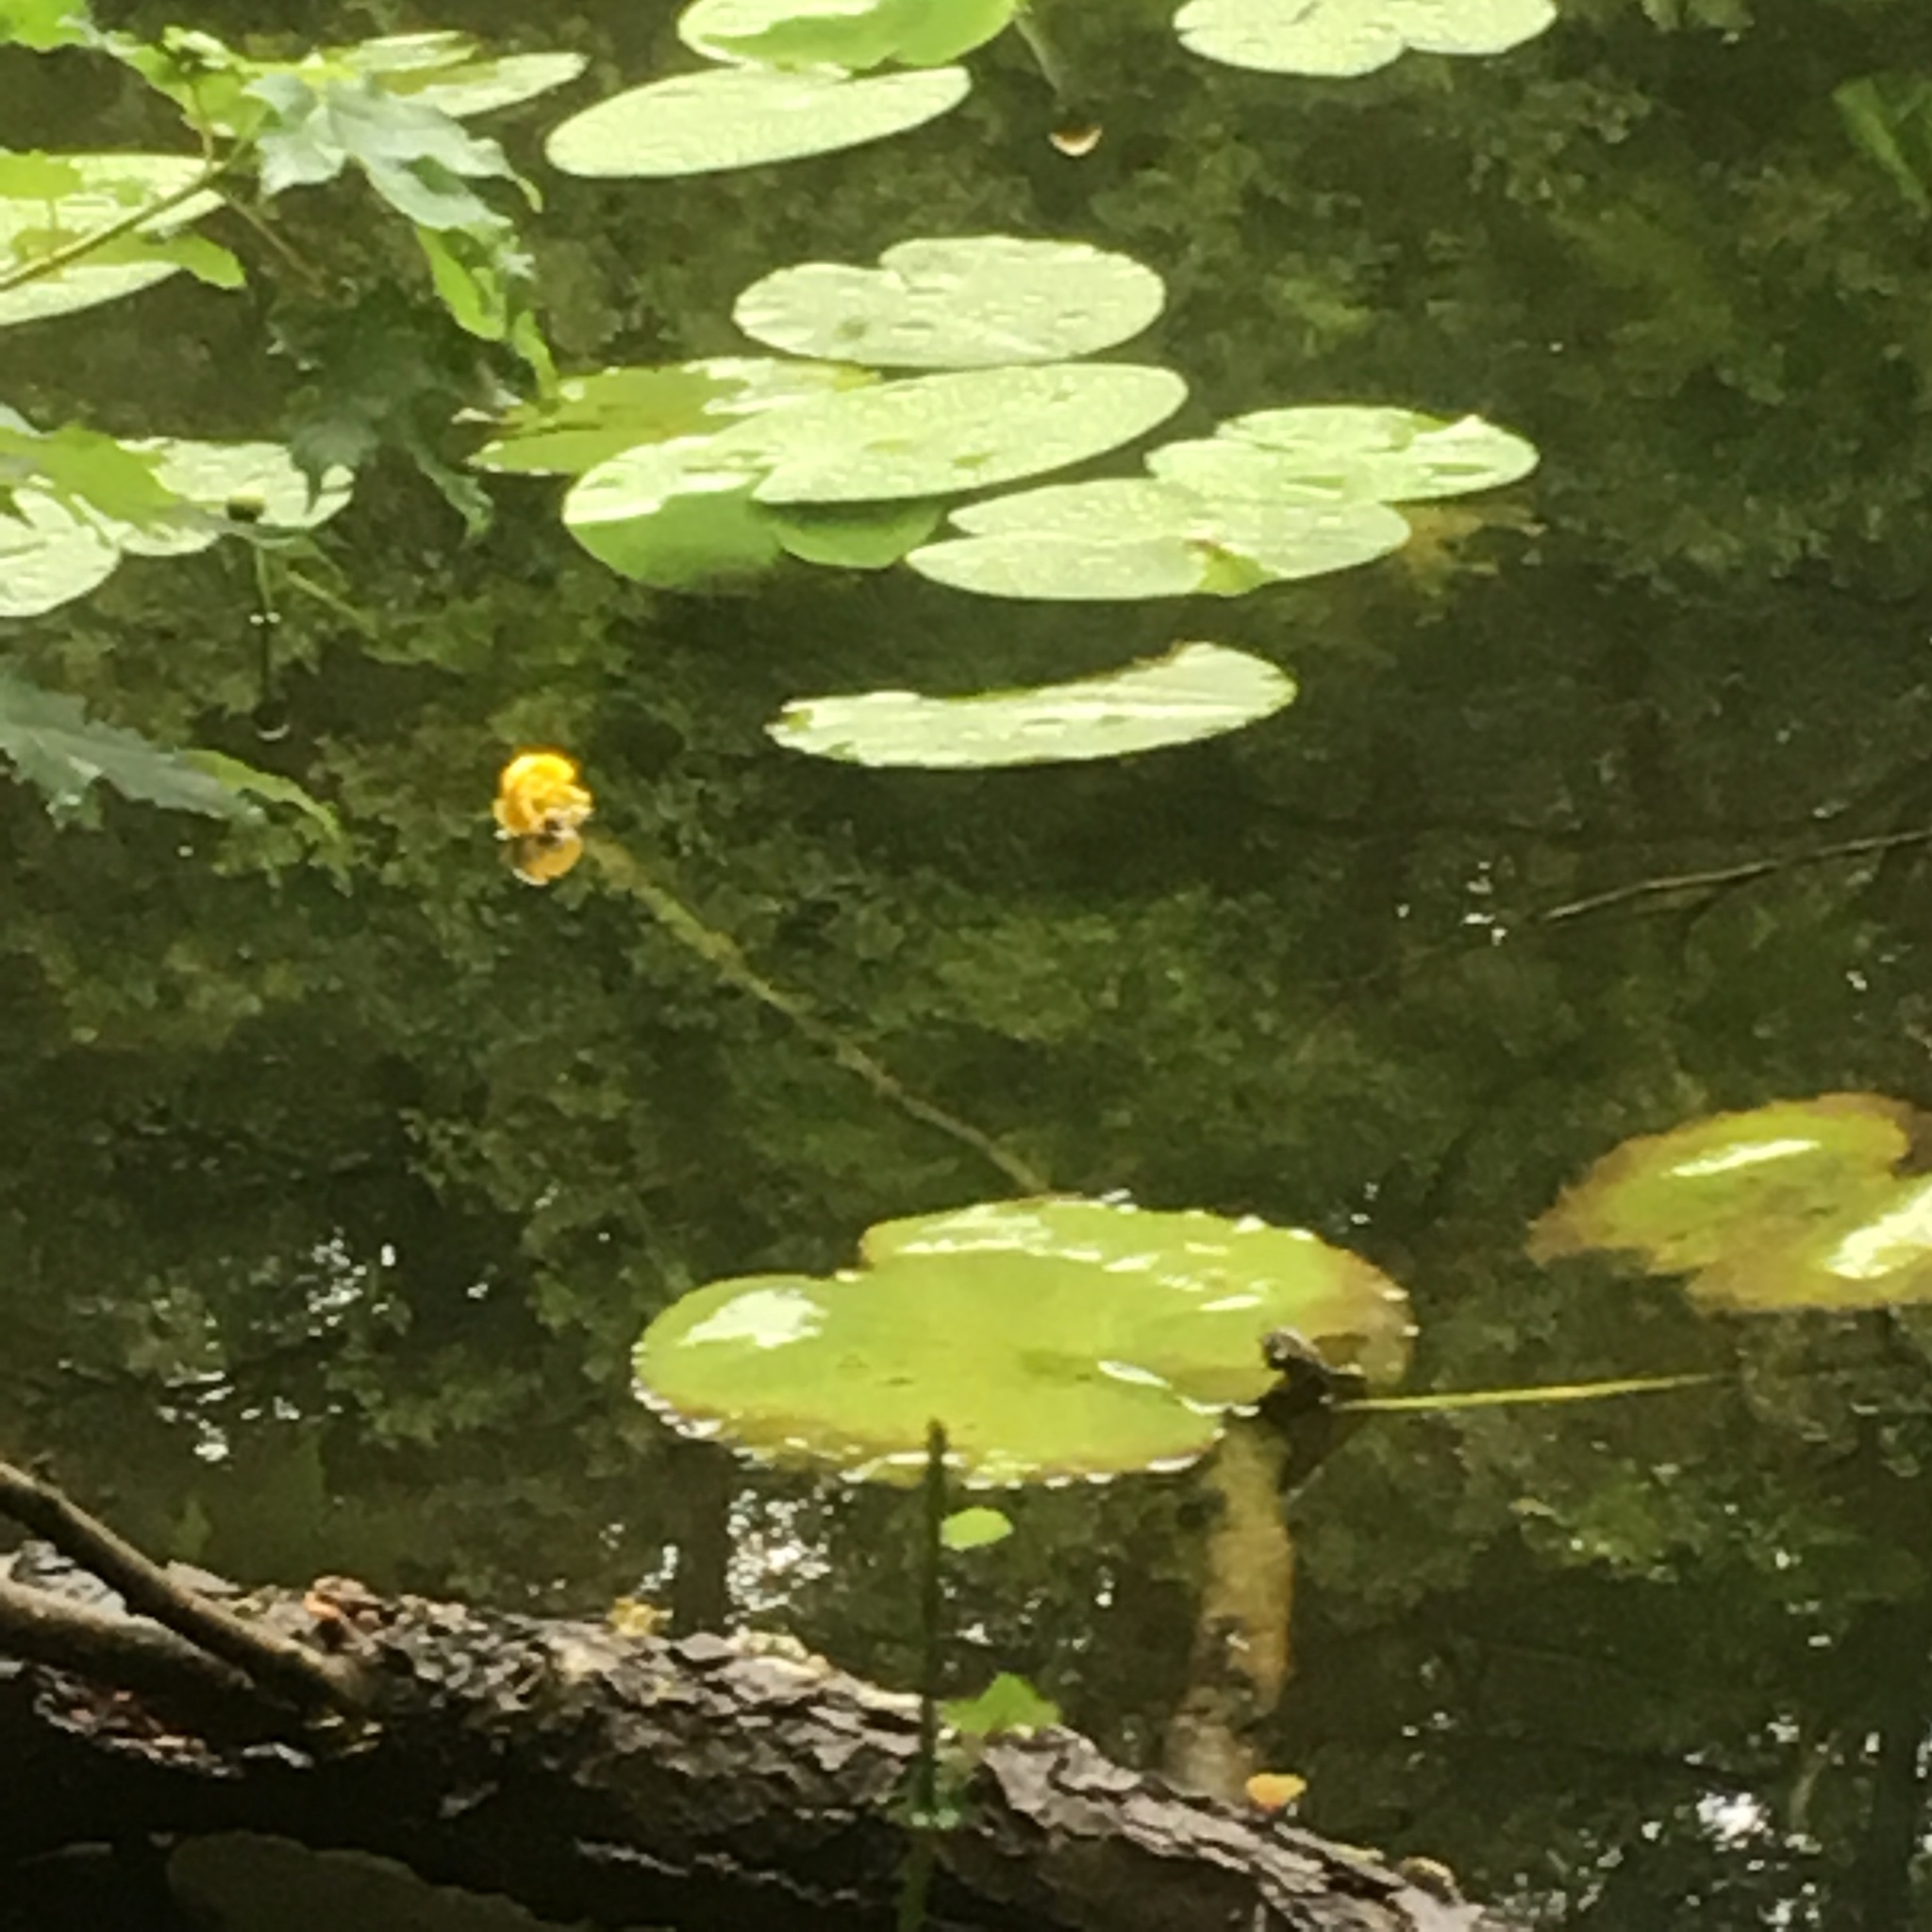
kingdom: Plantae
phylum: Tracheophyta
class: Magnoliopsida
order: Nymphaeales
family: Nymphaeaceae
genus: Nuphar
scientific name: Nuphar lutea
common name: Yellow water-lily
